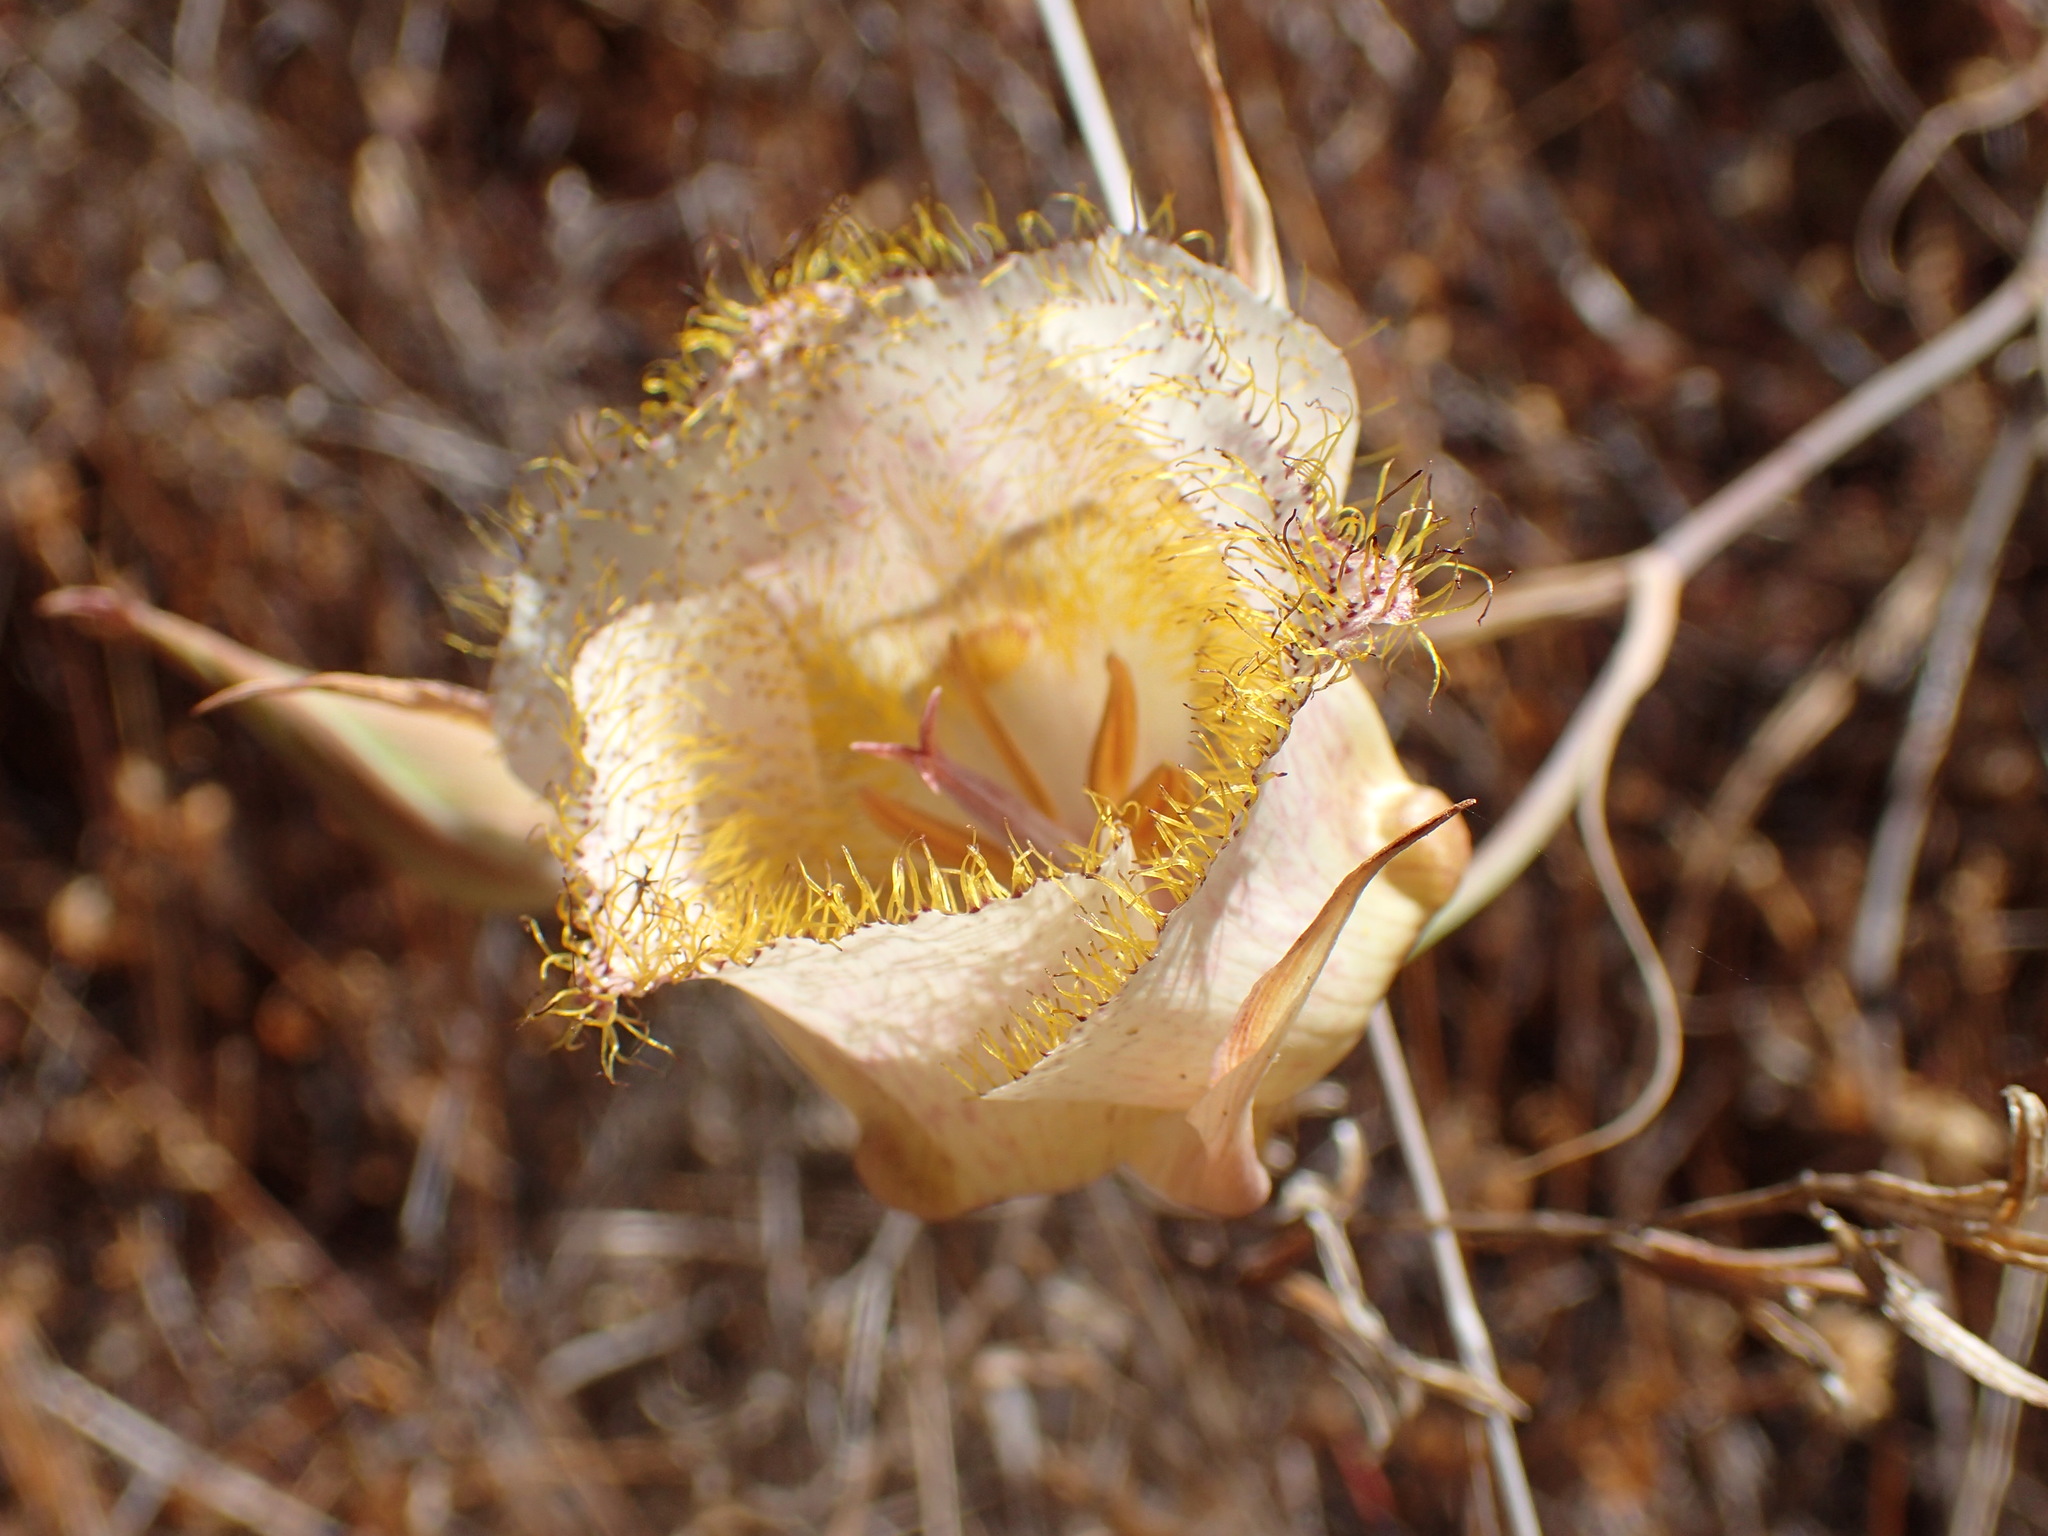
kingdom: Plantae
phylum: Tracheophyta
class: Liliopsida
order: Liliales
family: Liliaceae
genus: Calochortus
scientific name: Calochortus fimbriatus
